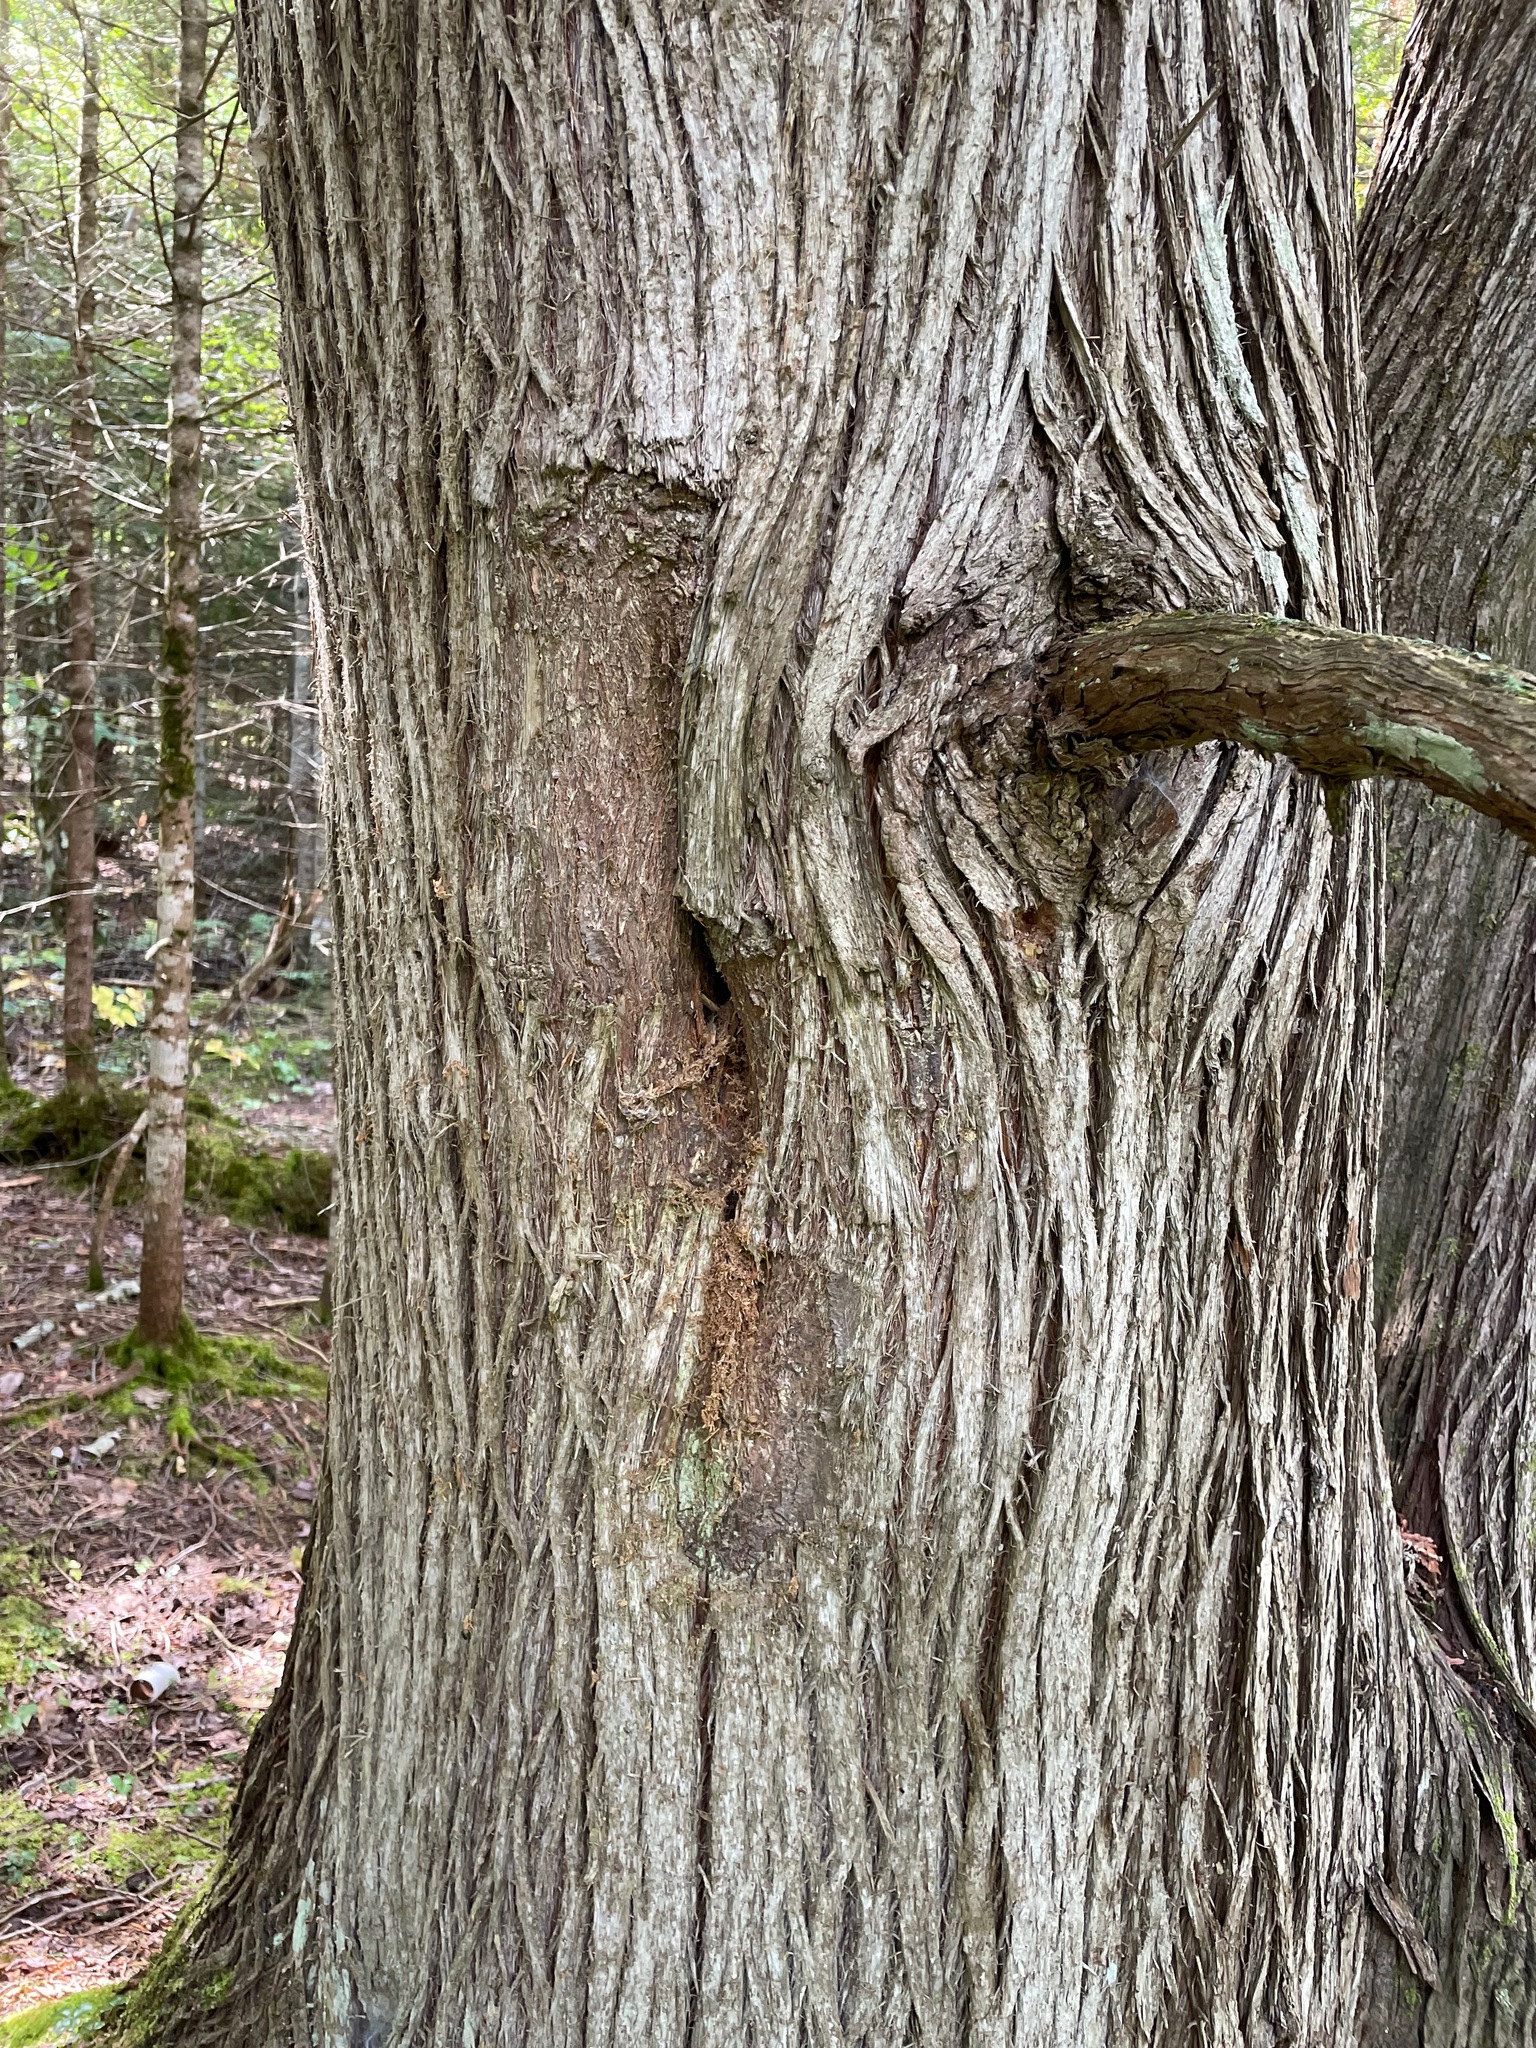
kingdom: Plantae
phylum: Tracheophyta
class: Pinopsida
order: Pinales
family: Cupressaceae
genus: Thuja
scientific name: Thuja occidentalis
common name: Northern white-cedar
